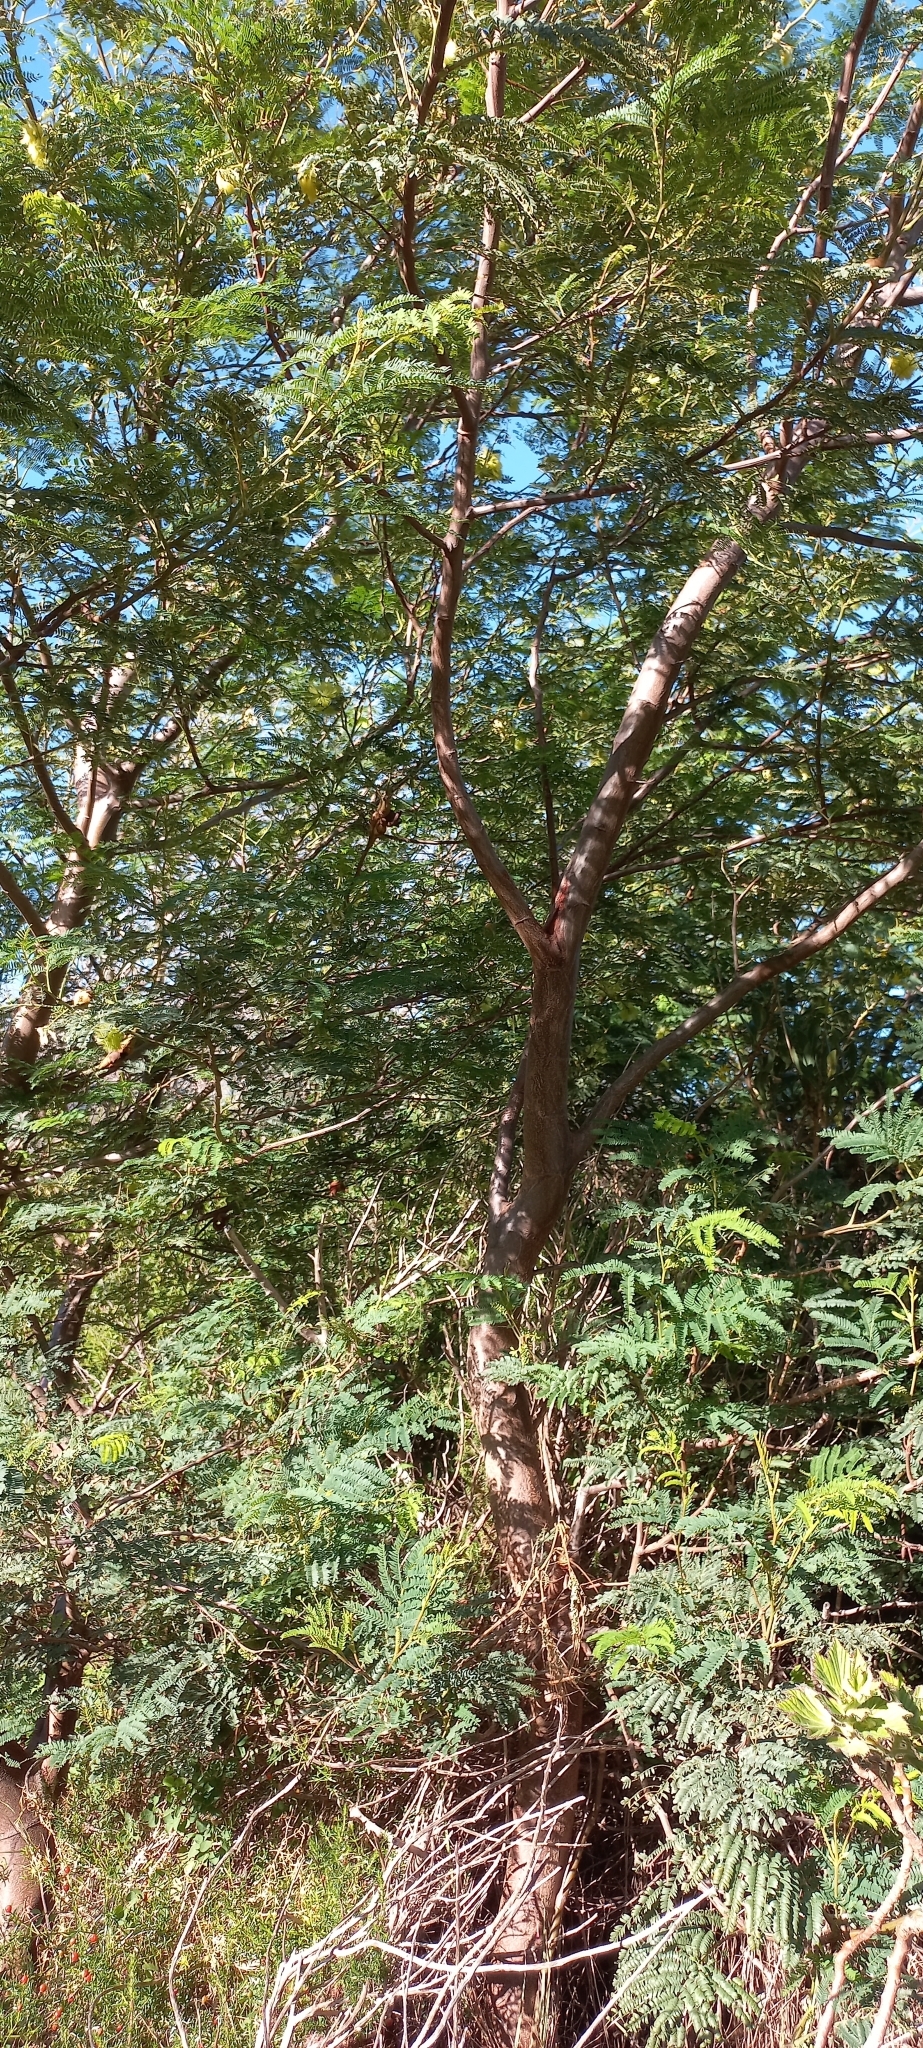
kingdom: Plantae
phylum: Tracheophyta
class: Magnoliopsida
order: Fabales
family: Fabaceae
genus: Paraserianthes
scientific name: Paraserianthes lophantha
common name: Plume albizia
